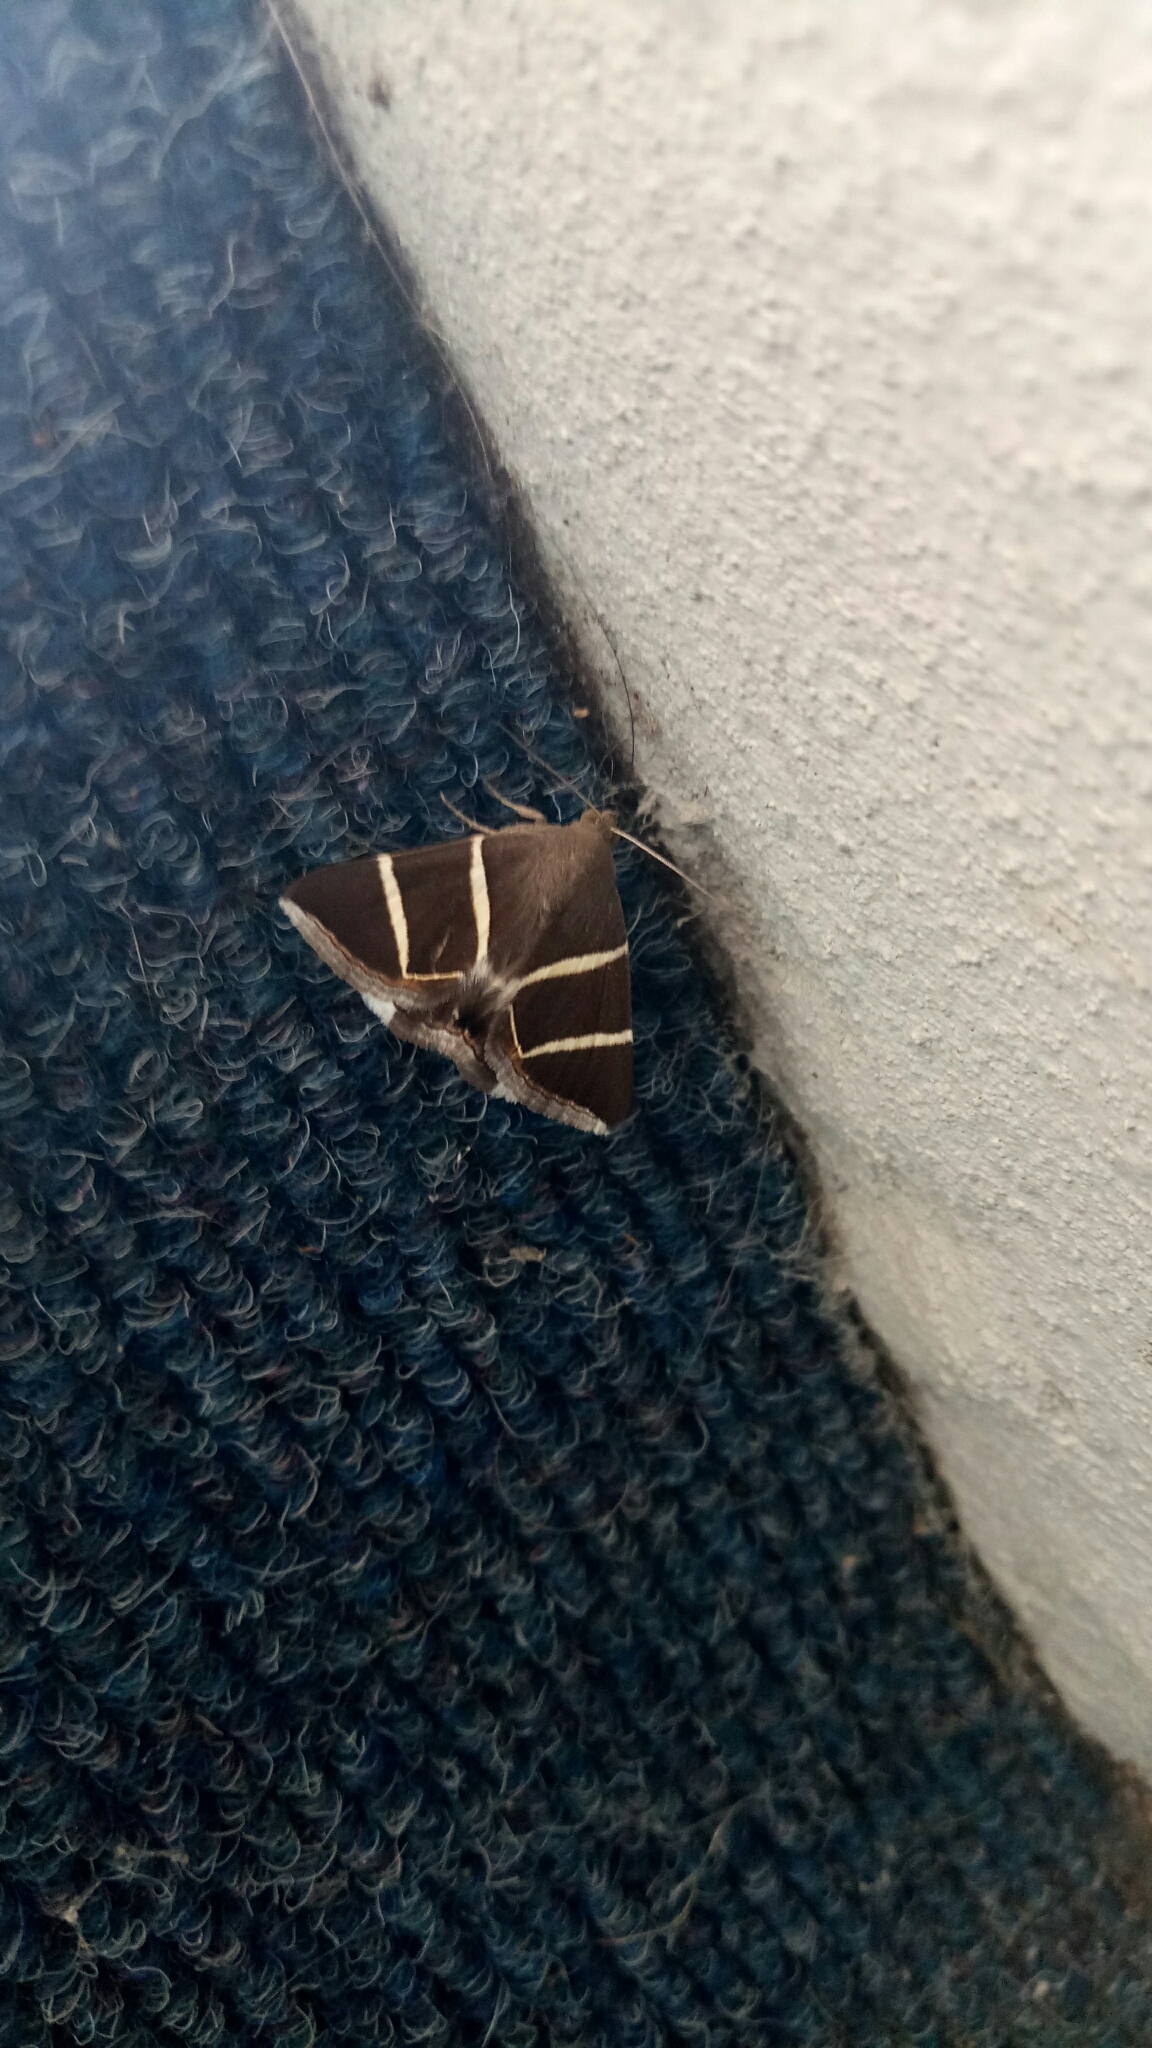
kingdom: Animalia
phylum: Arthropoda
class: Insecta
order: Lepidoptera
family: Erebidae
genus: Grammodes
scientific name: Grammodes justa
